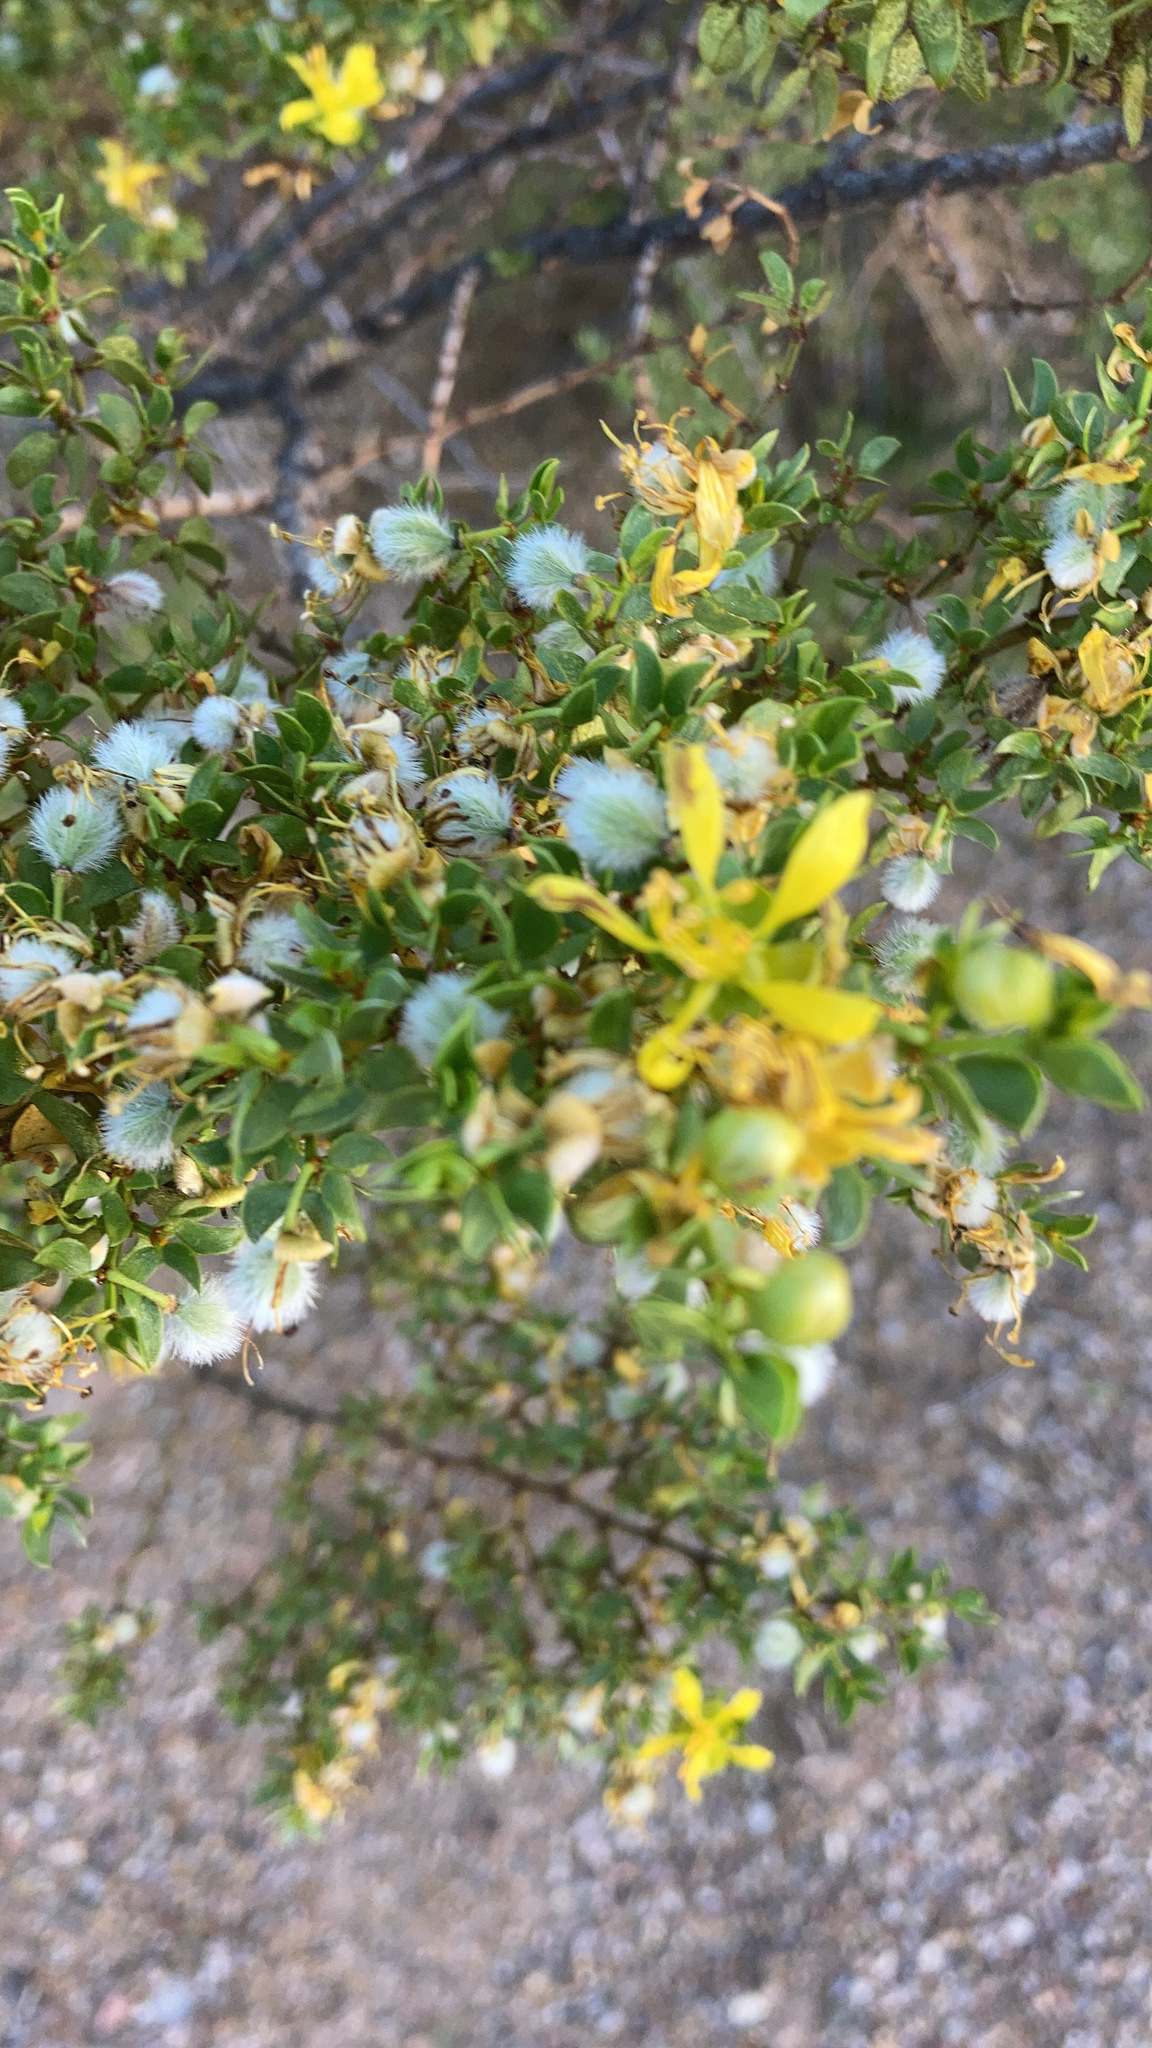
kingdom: Plantae
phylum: Tracheophyta
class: Magnoliopsida
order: Zygophyllales
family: Zygophyllaceae
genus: Larrea
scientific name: Larrea tridentata
